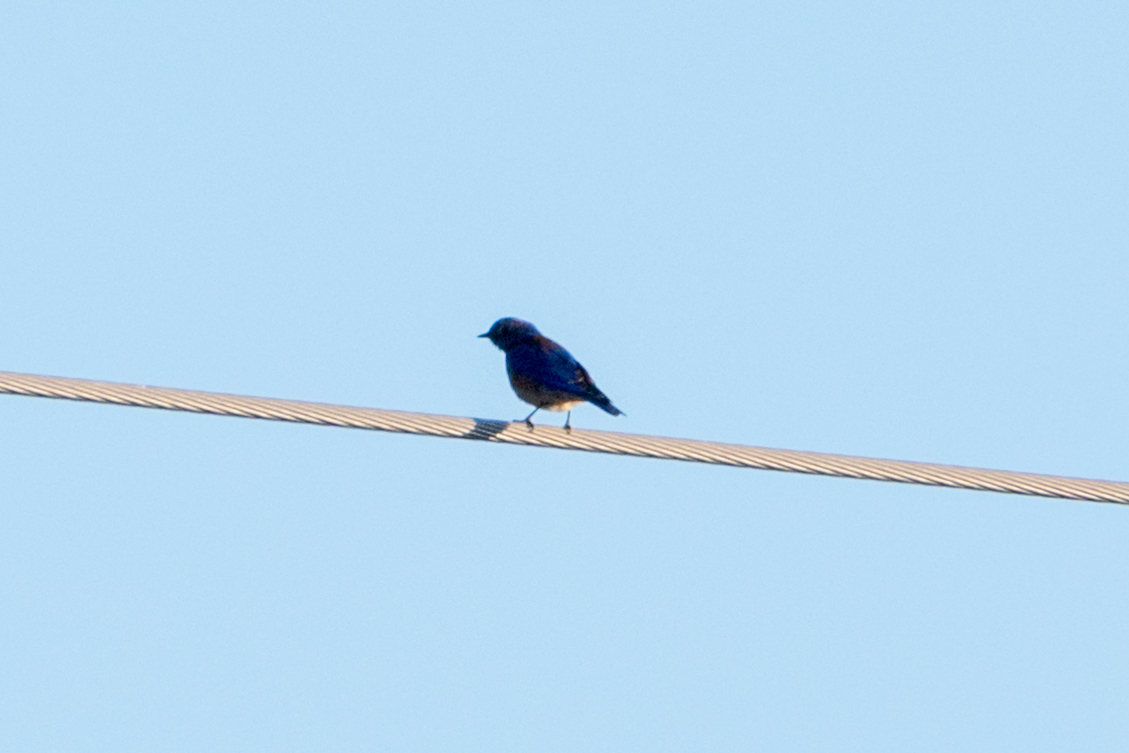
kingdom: Animalia
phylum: Chordata
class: Aves
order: Passeriformes
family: Turdidae
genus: Sialia
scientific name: Sialia mexicana
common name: Western bluebird
